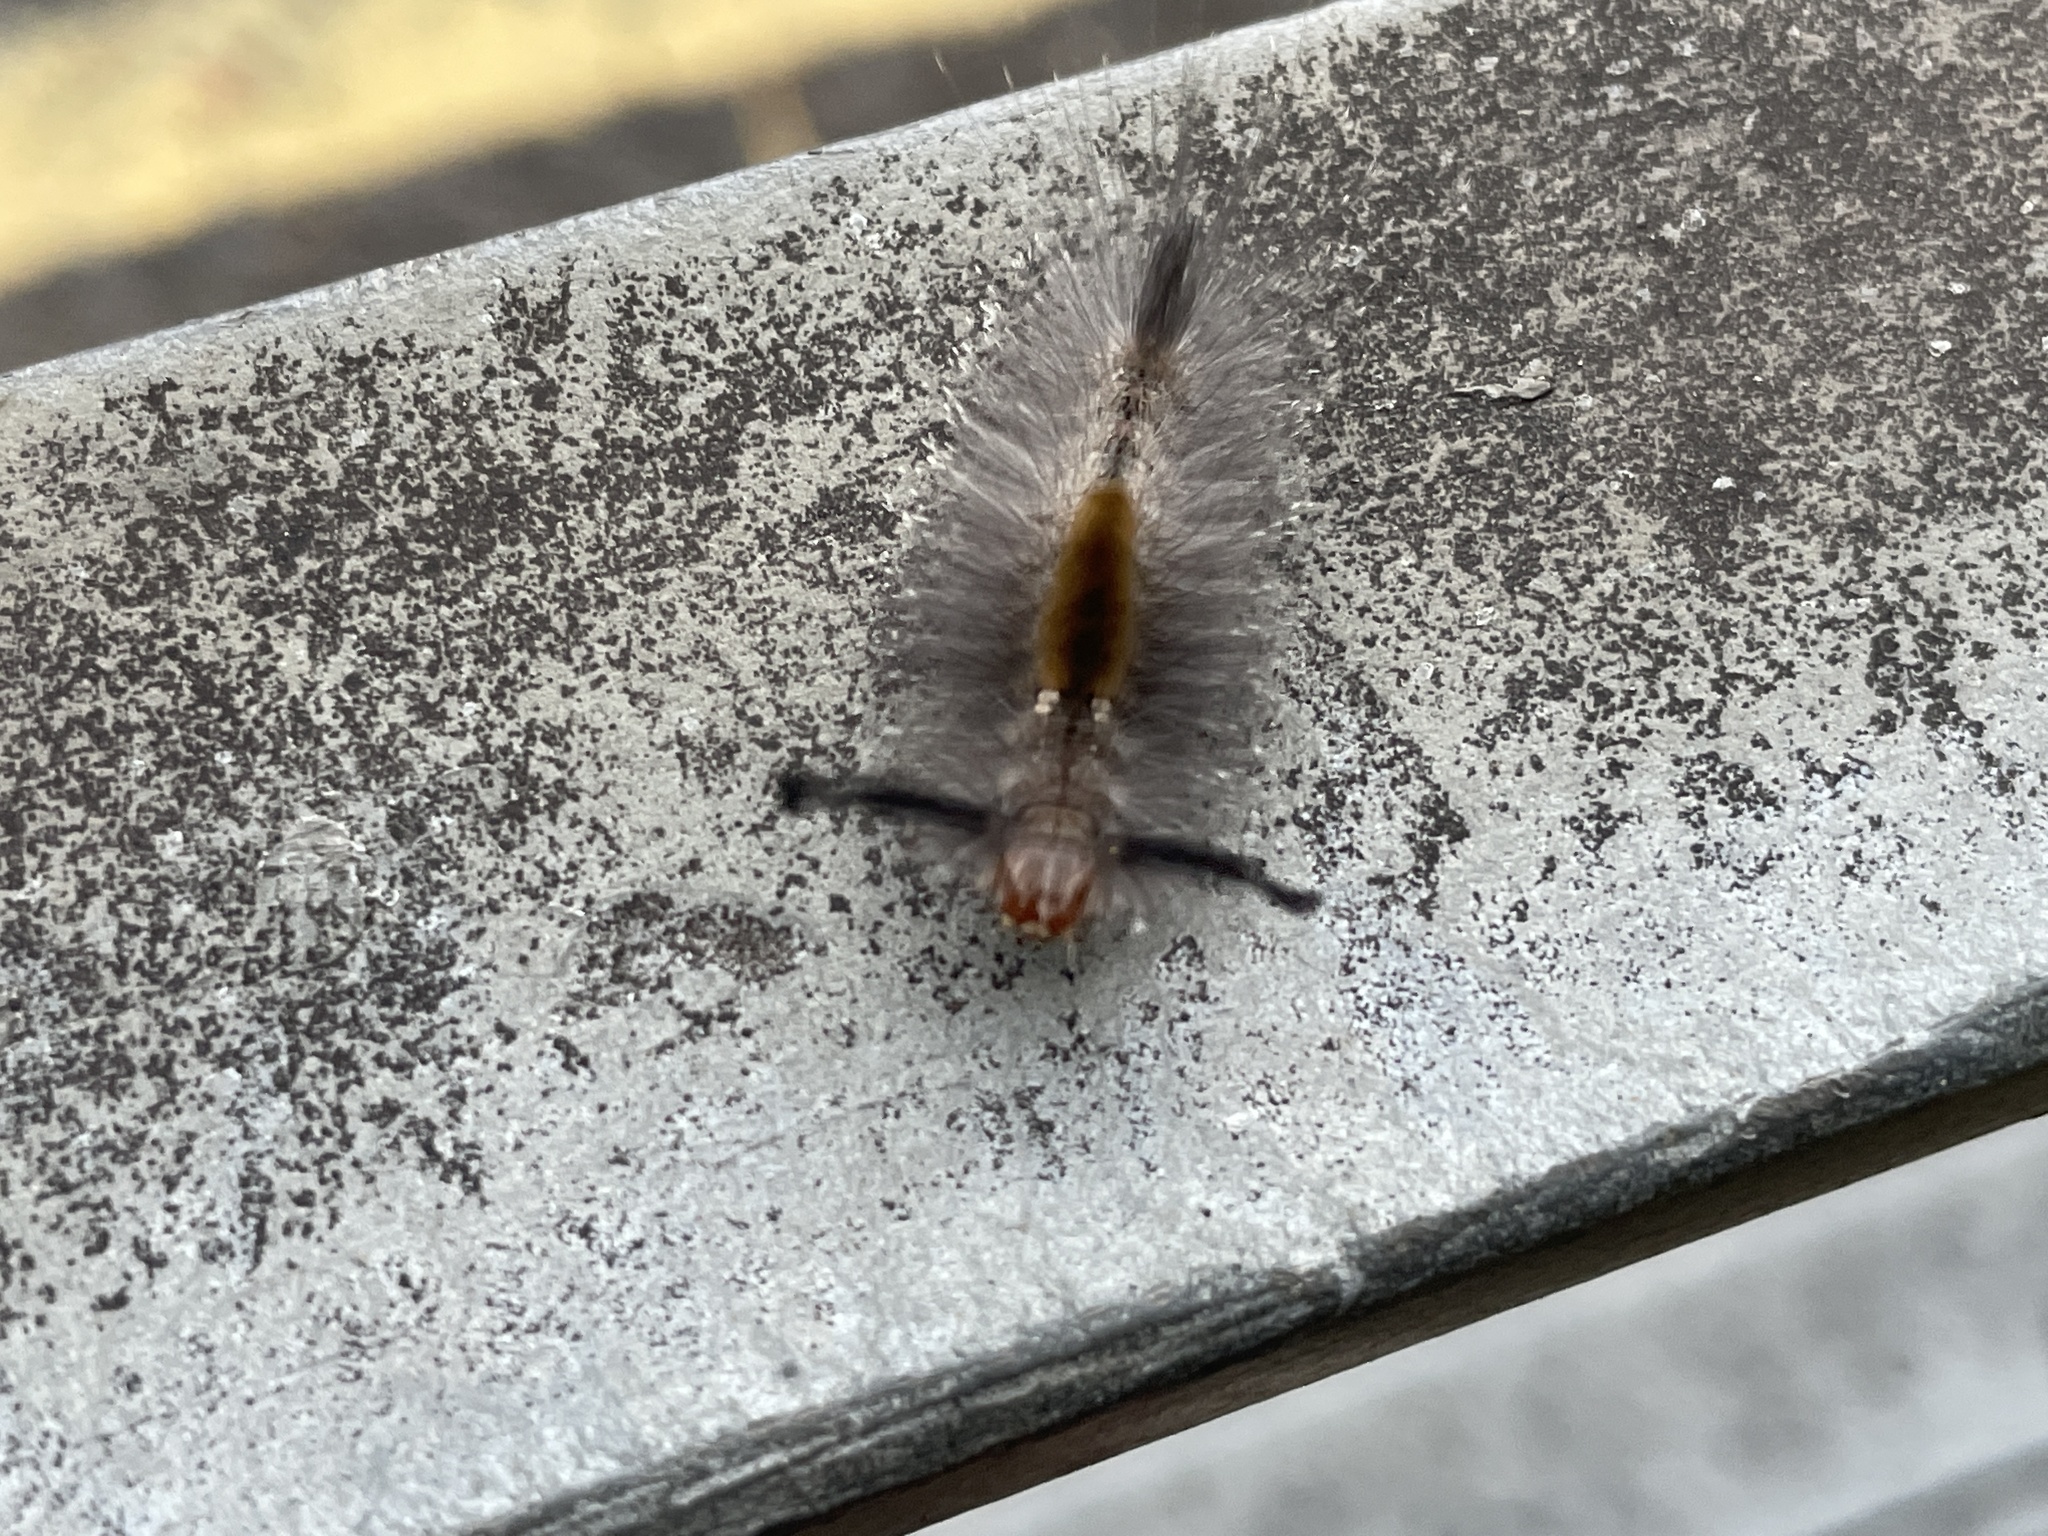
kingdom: Animalia
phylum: Arthropoda
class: Insecta
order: Lepidoptera
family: Erebidae
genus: Dasychira
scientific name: Dasychira chekiangensis
